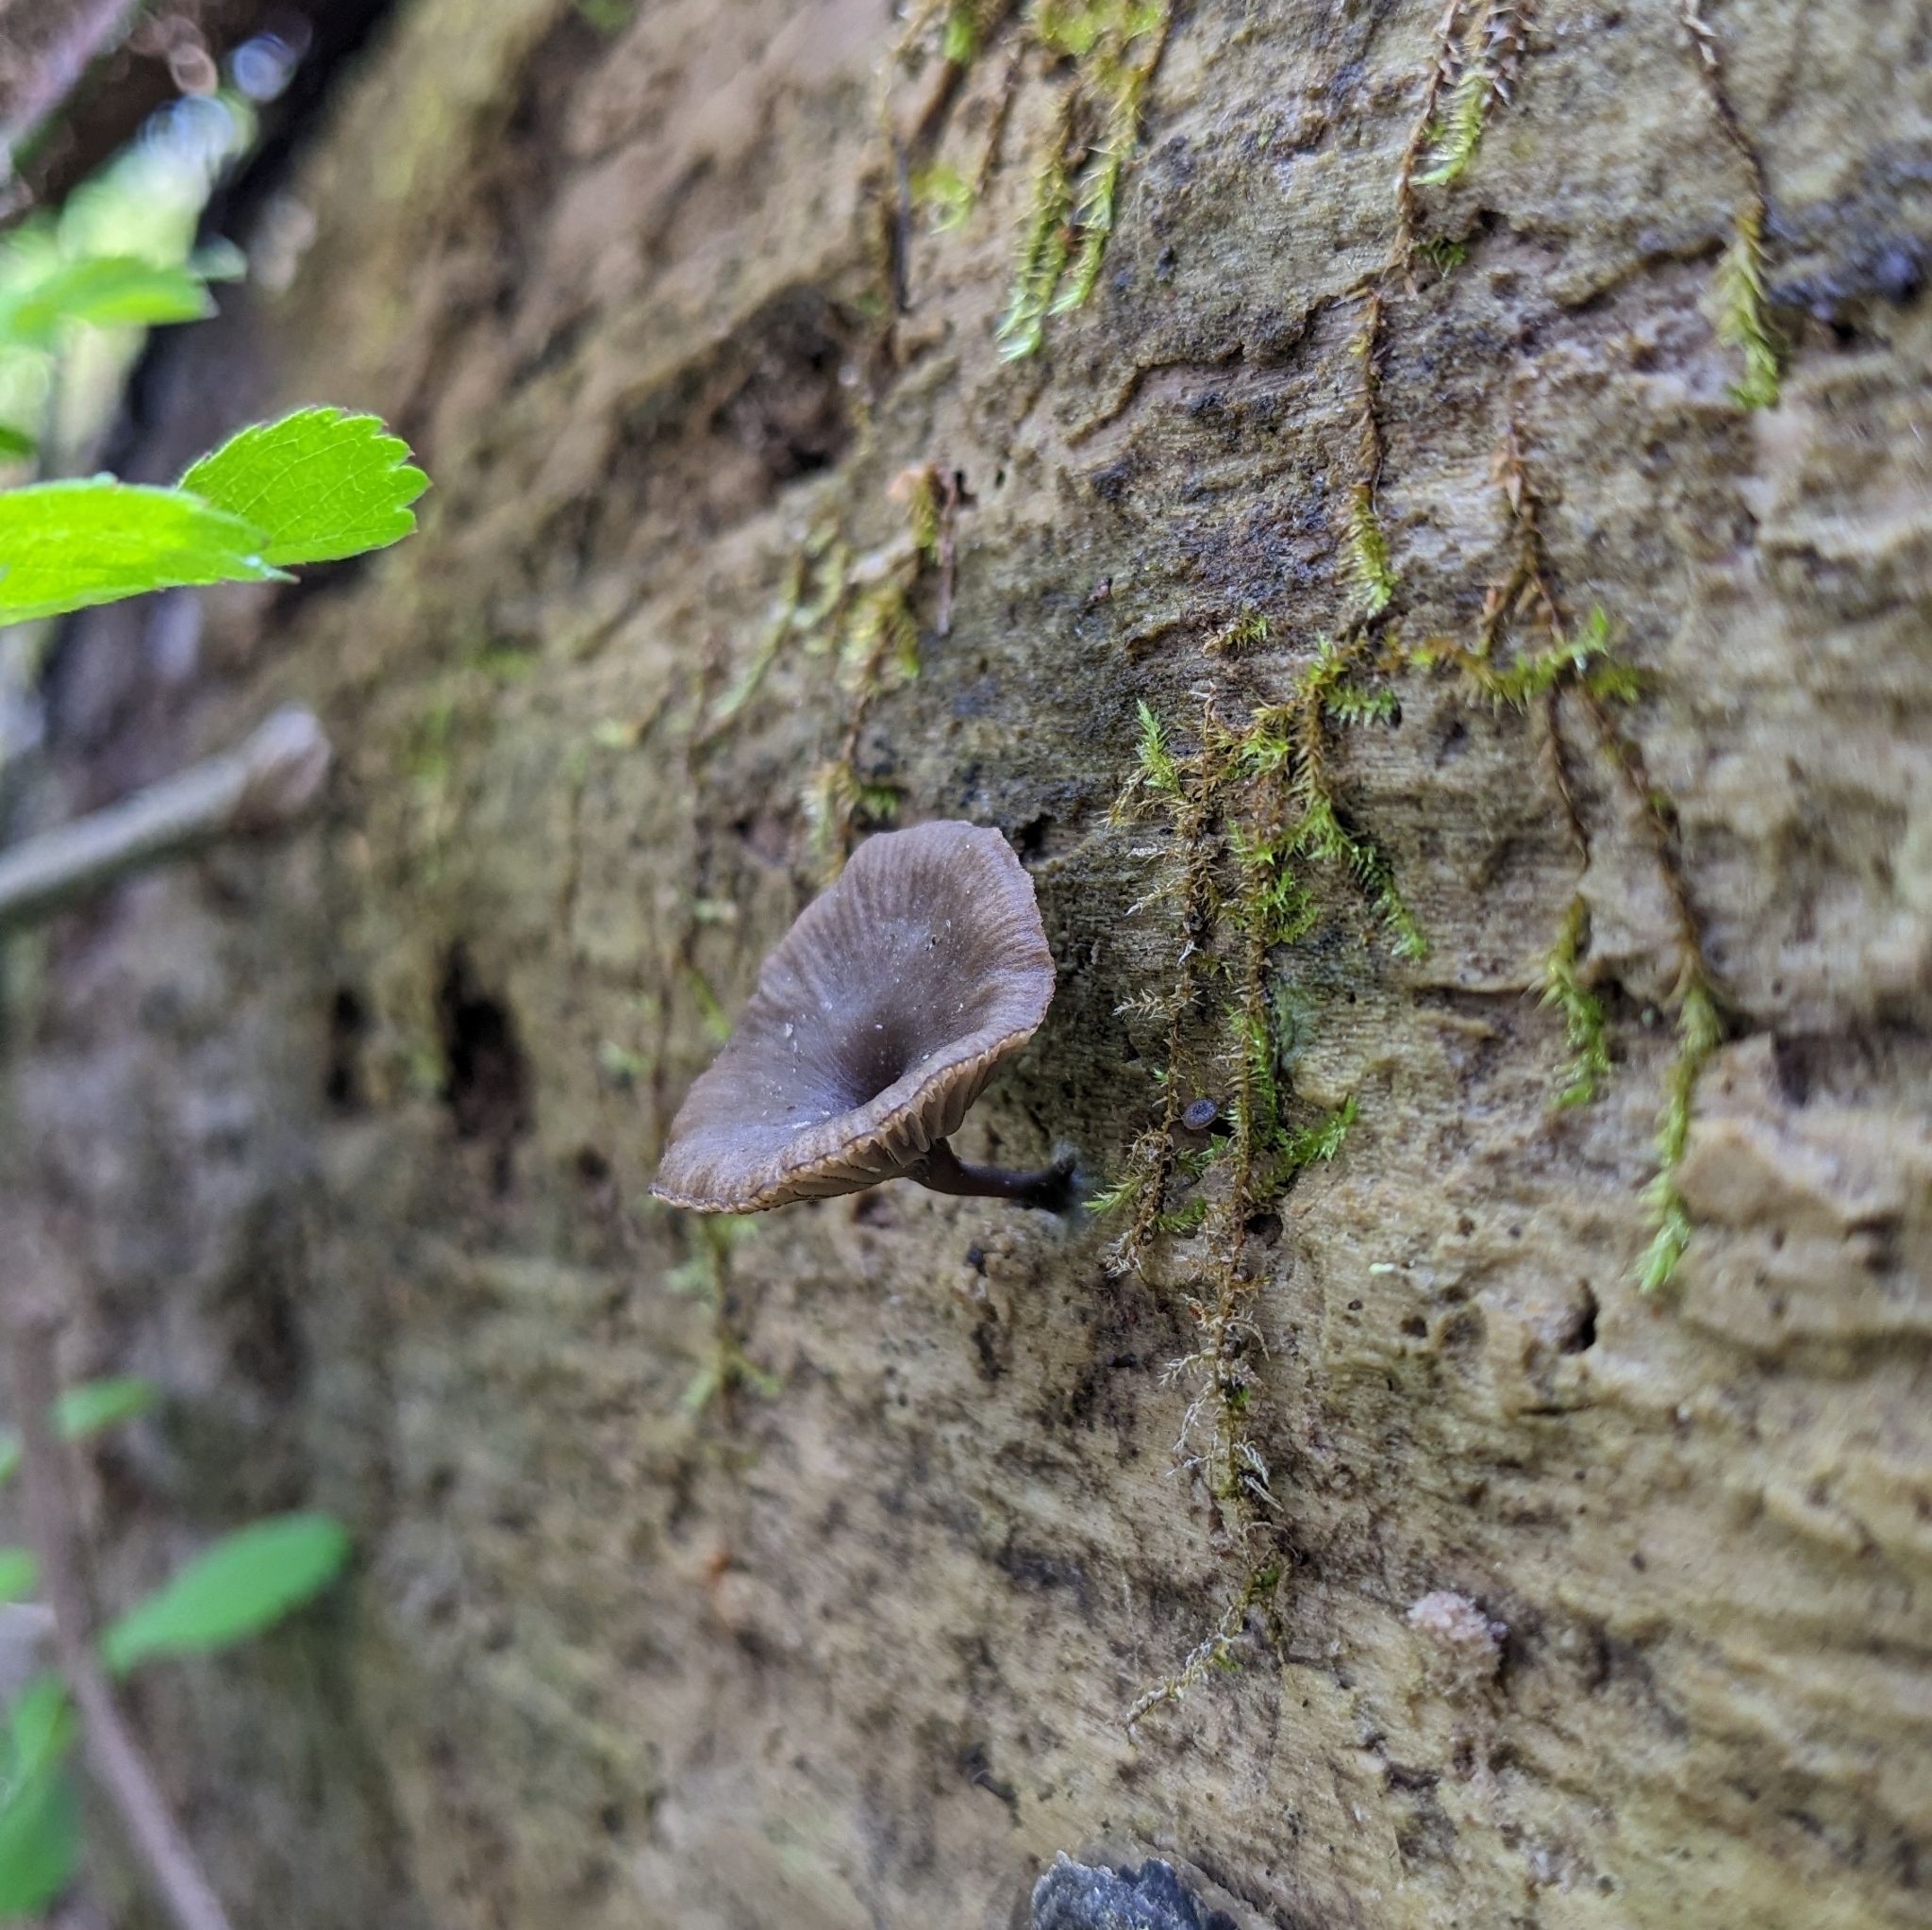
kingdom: Fungi
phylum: Basidiomycota
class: Agaricomycetes
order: Agaricales
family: Hygrophoraceae
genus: Arrhenia
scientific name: Arrhenia epichysium
